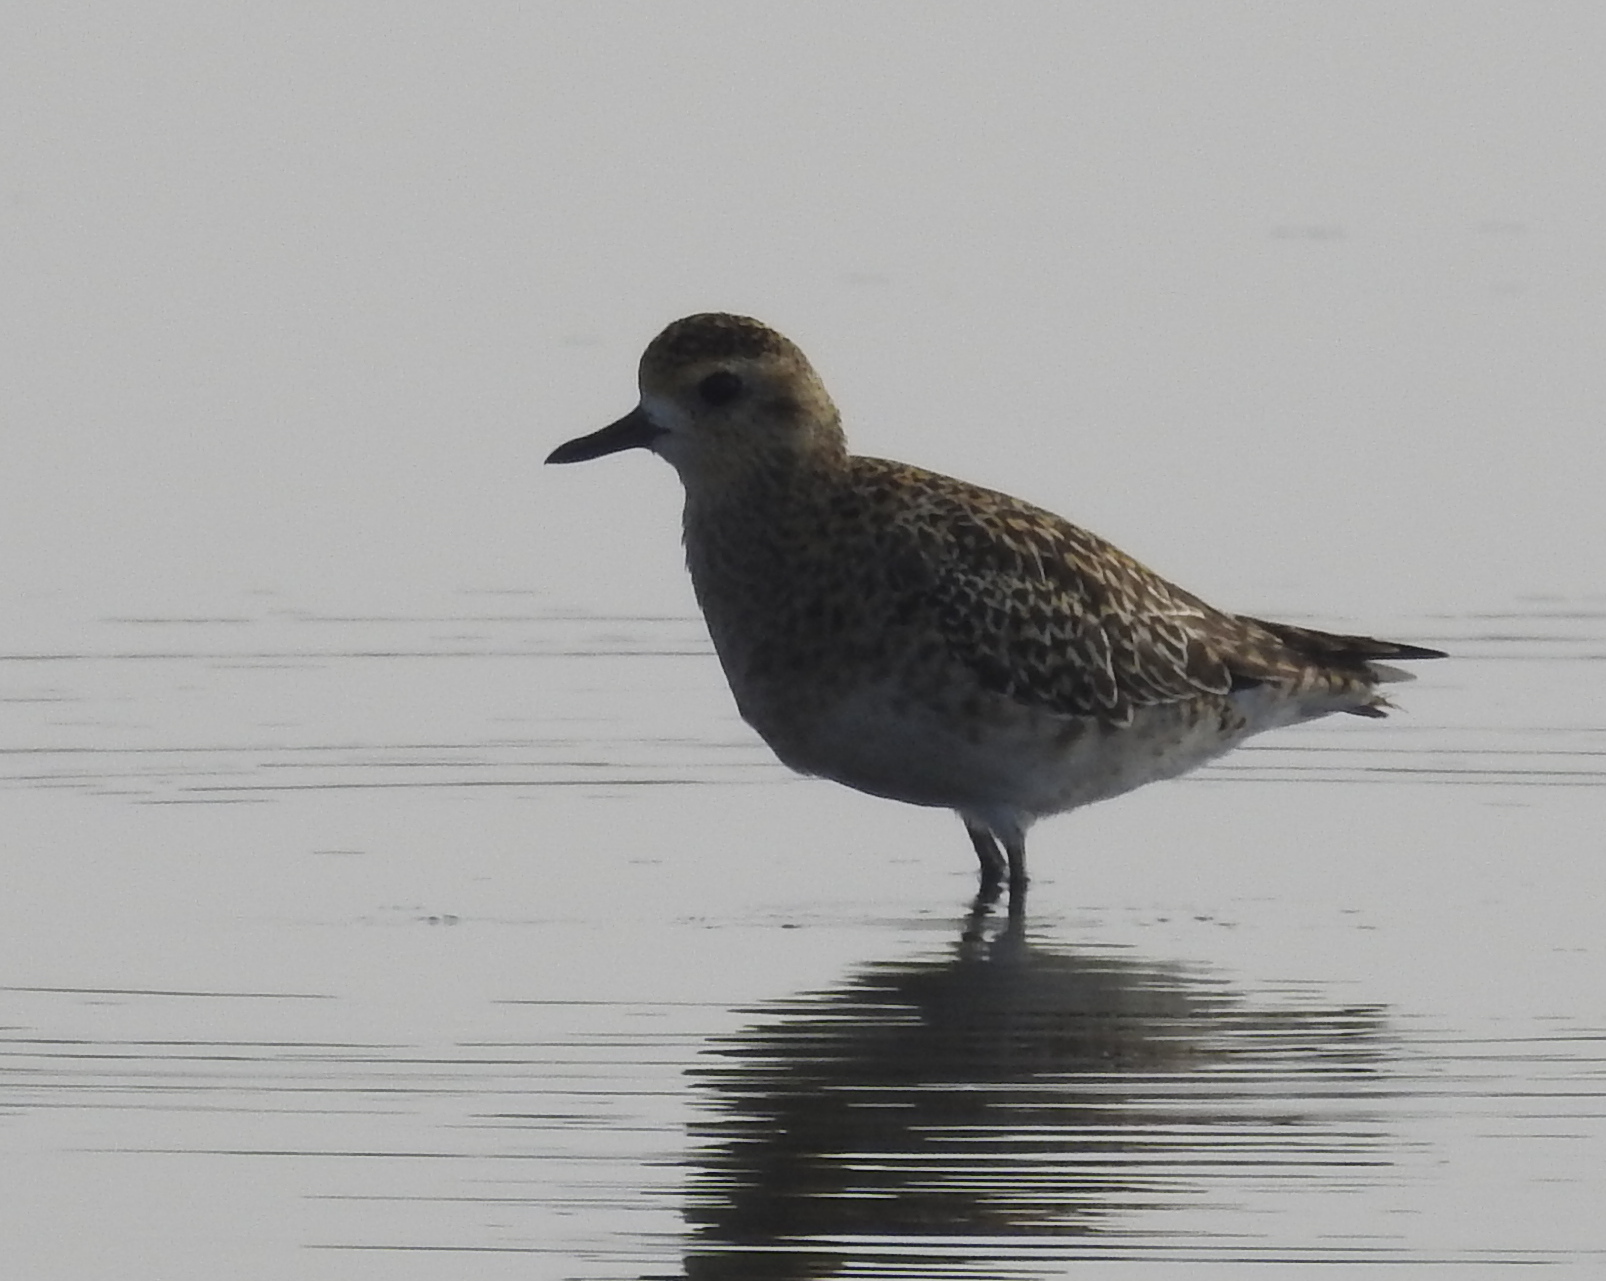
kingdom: Animalia
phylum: Chordata
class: Aves
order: Charadriiformes
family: Charadriidae
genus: Pluvialis
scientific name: Pluvialis fulva
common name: Pacific golden plover
